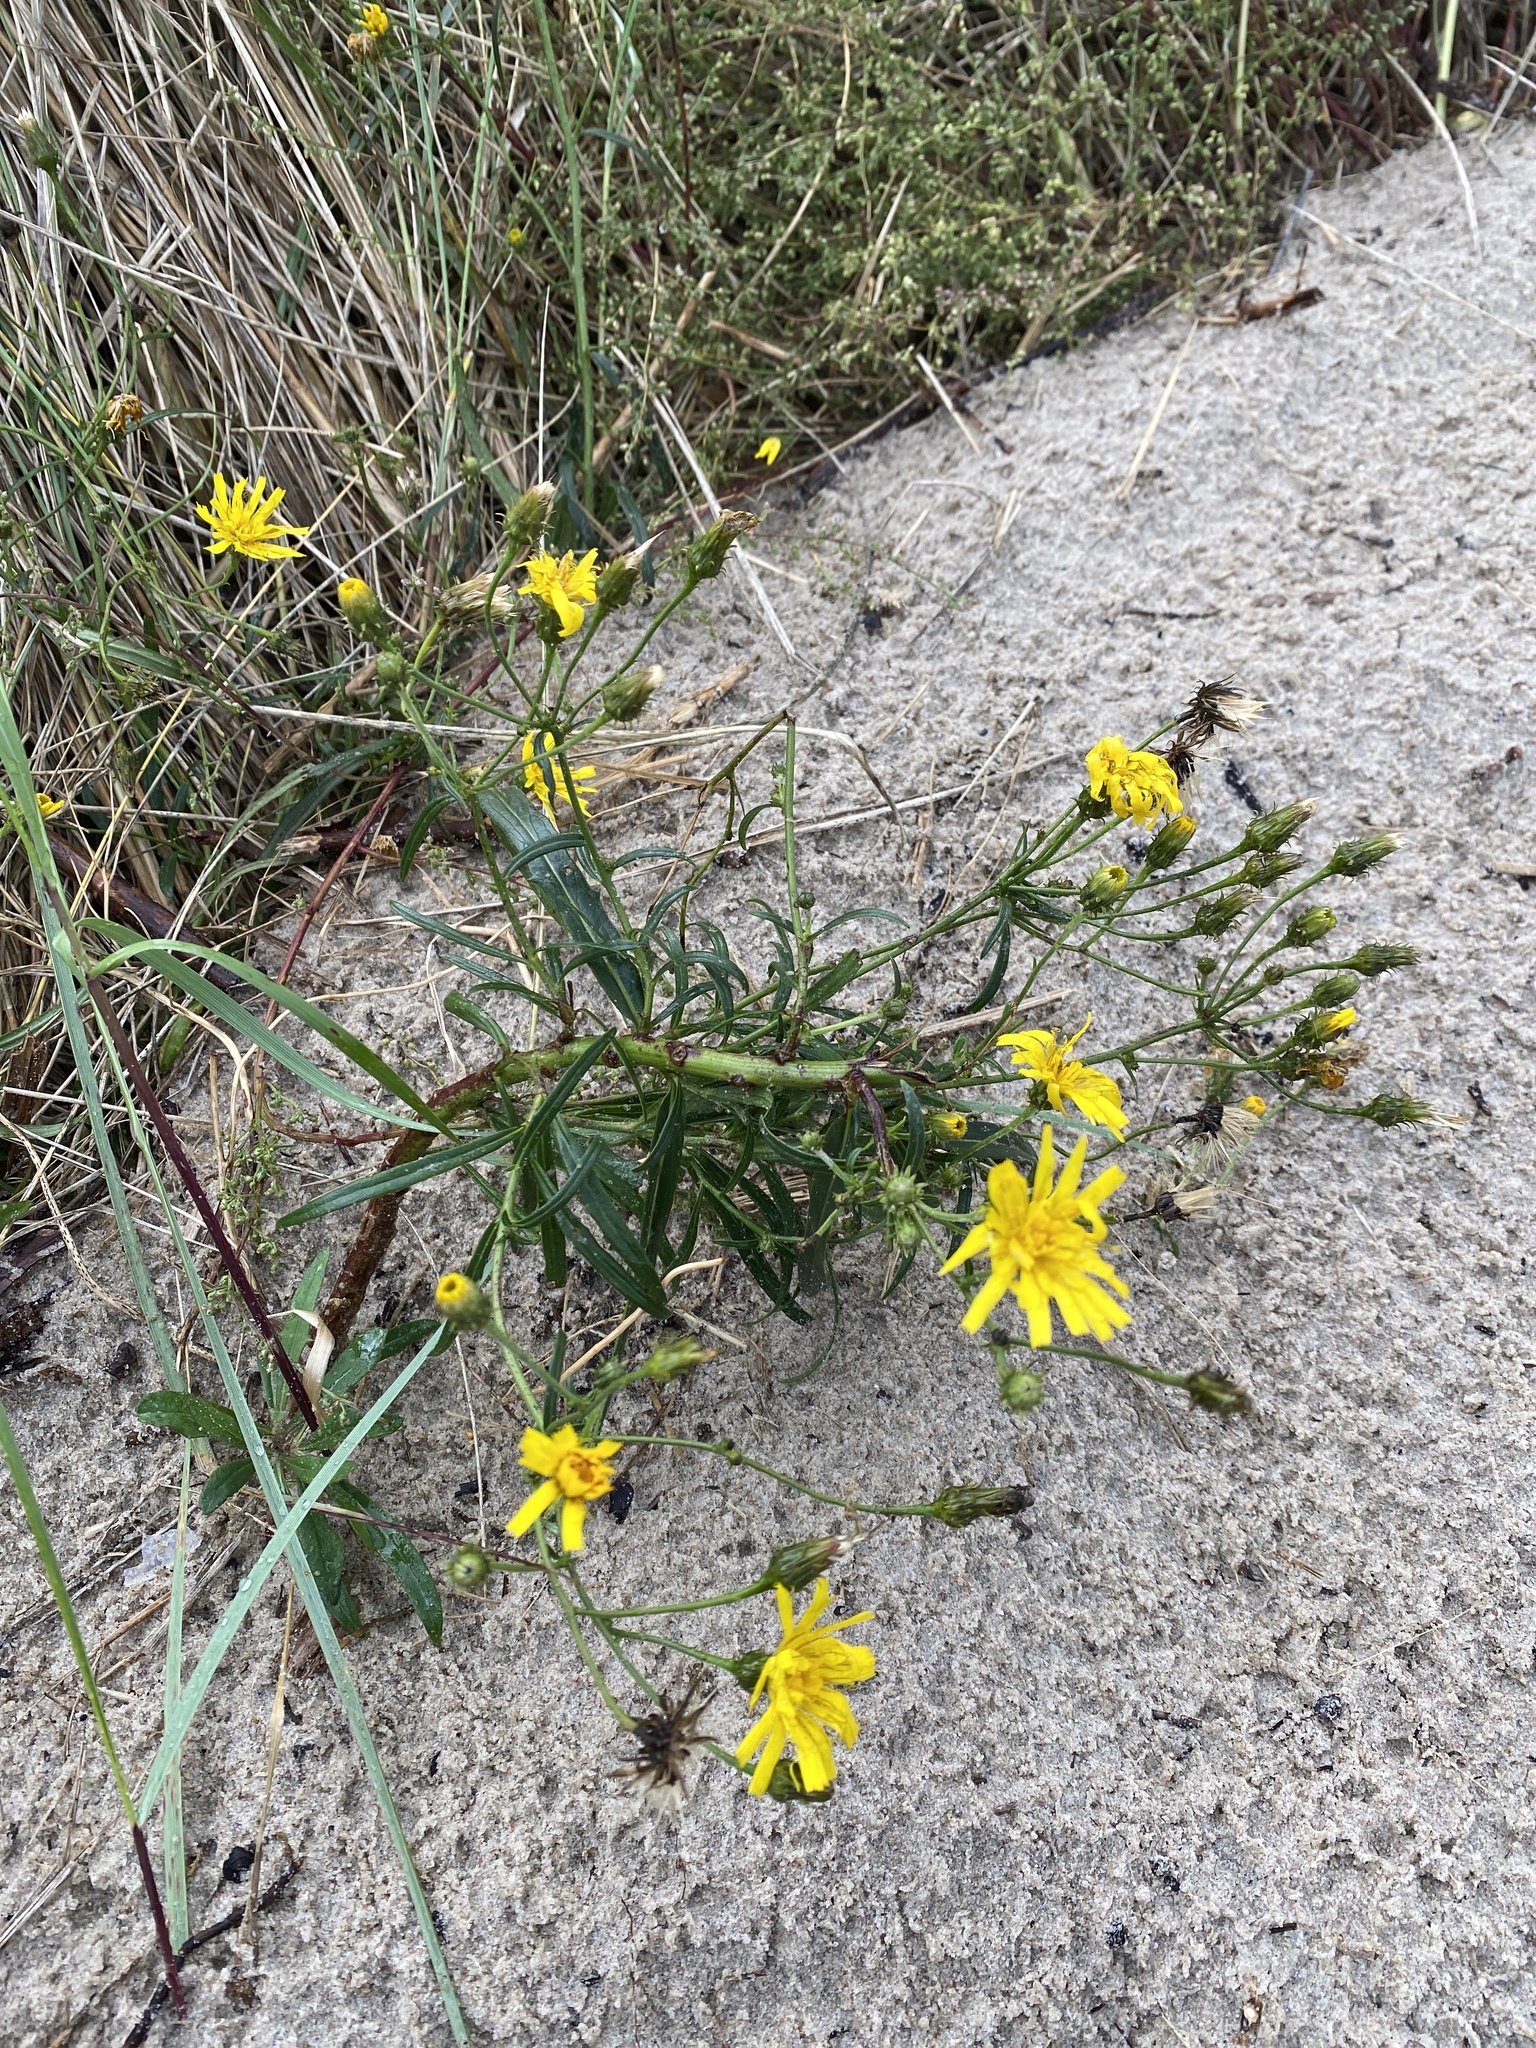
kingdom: Plantae
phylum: Tracheophyta
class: Magnoliopsida
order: Asterales
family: Asteraceae
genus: Hieracium
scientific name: Hieracium umbellatum
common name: Northern hawkweed
